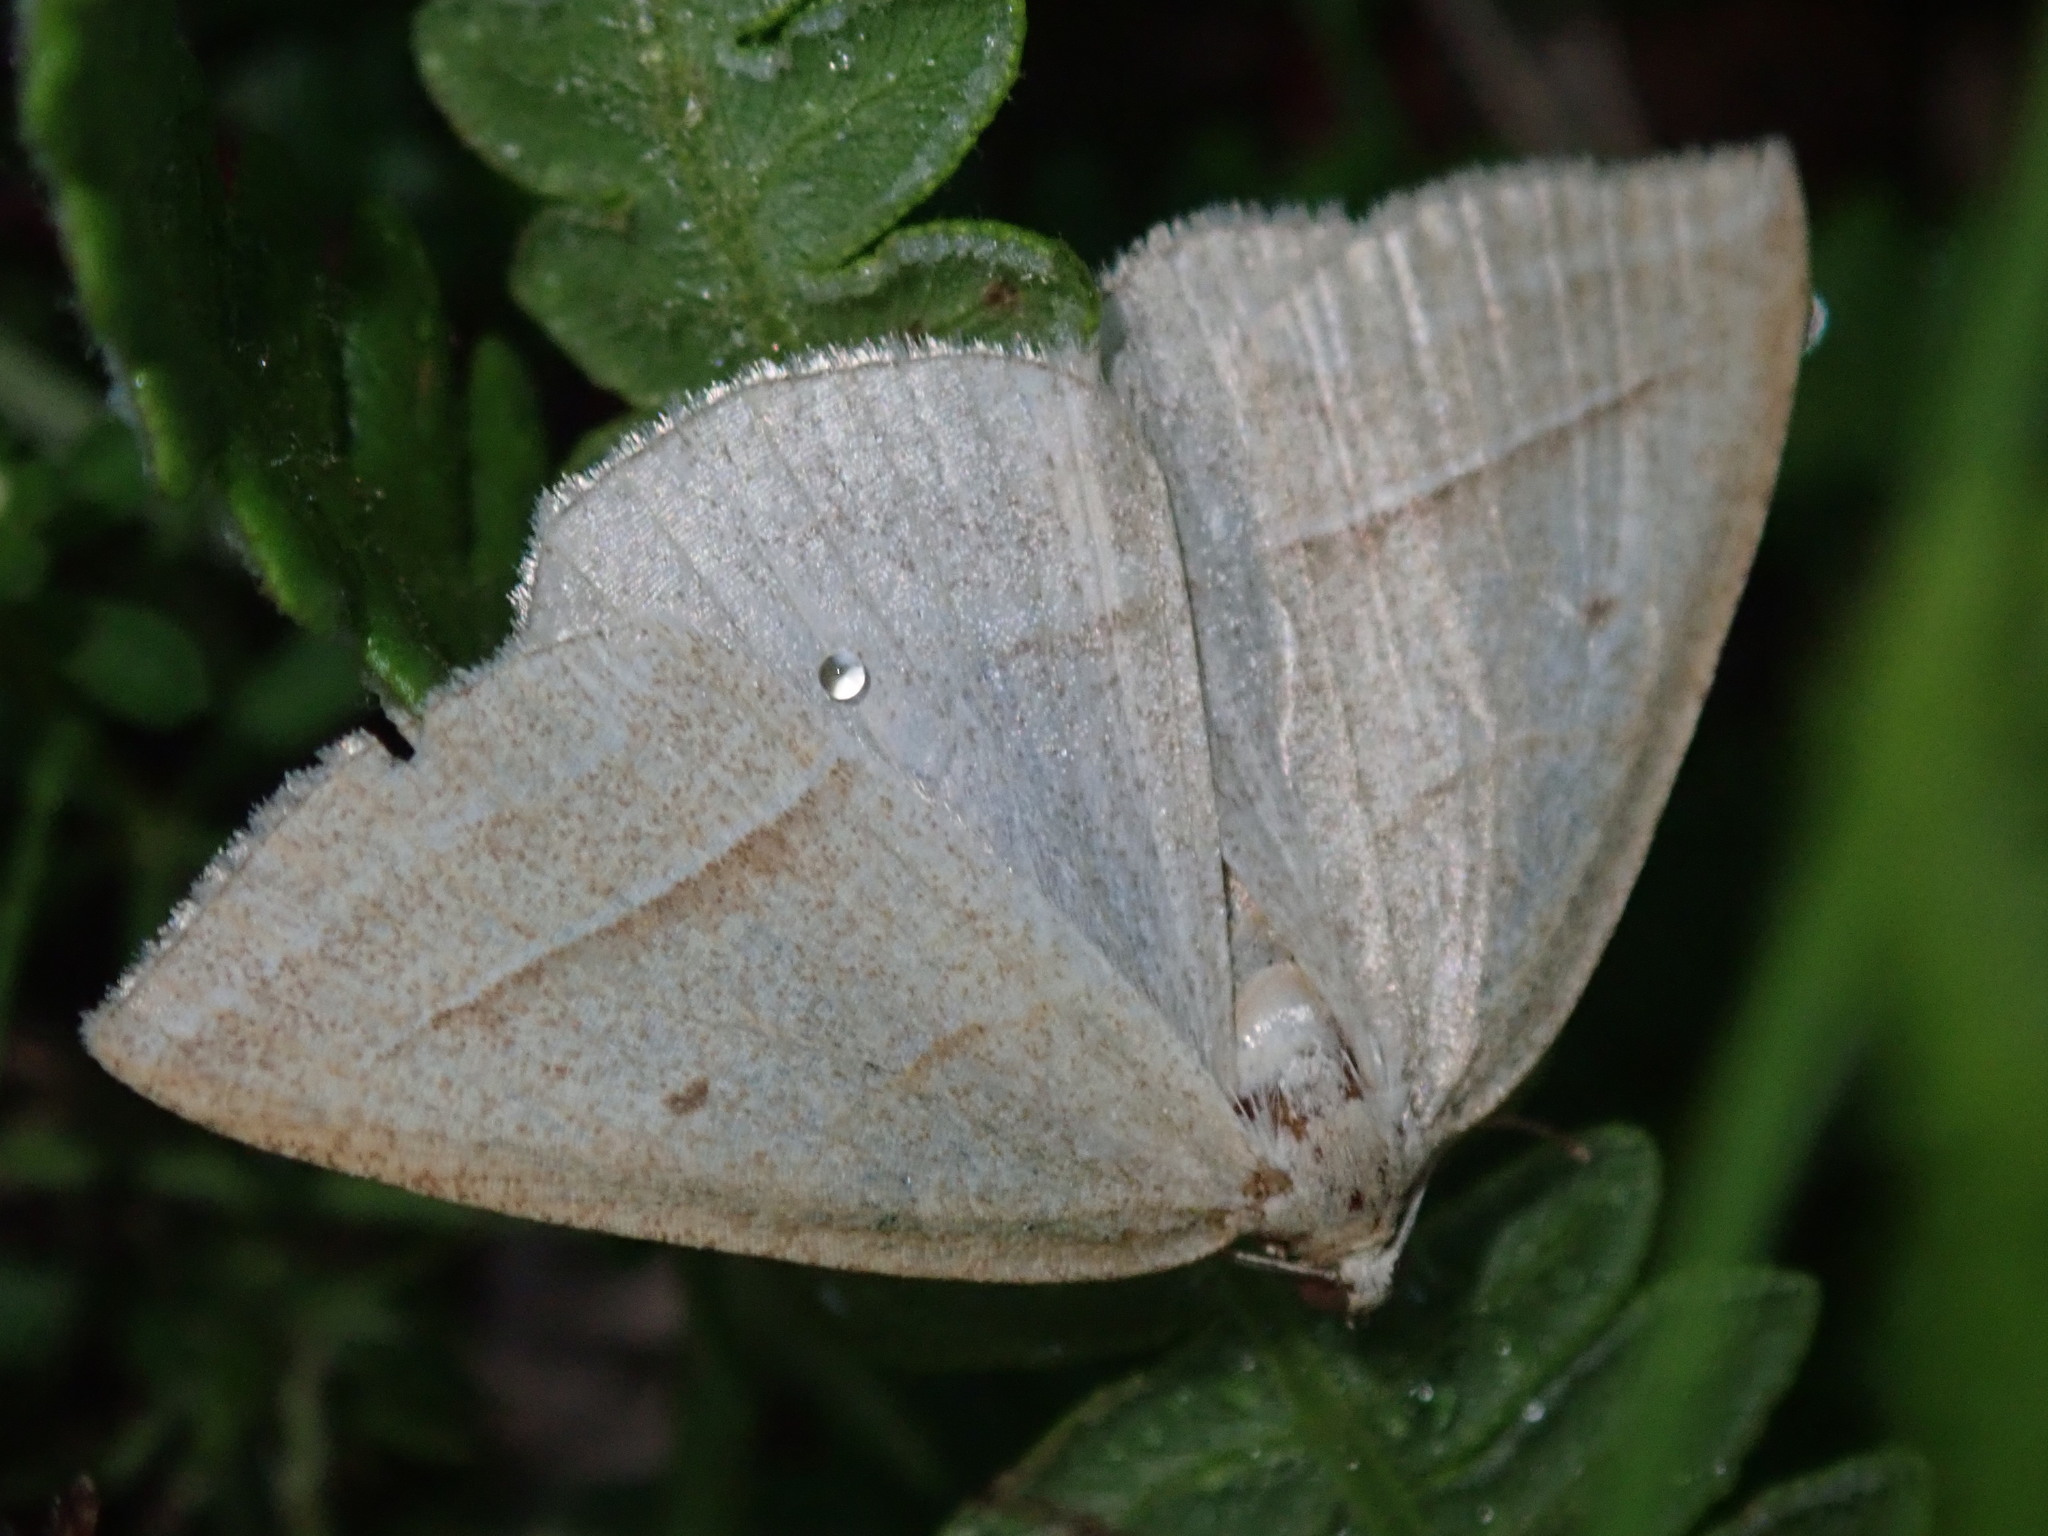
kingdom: Animalia
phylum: Arthropoda
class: Insecta
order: Lepidoptera
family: Pterophoridae
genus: Pterophorus
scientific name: Pterophorus Petrophora chlorosata
